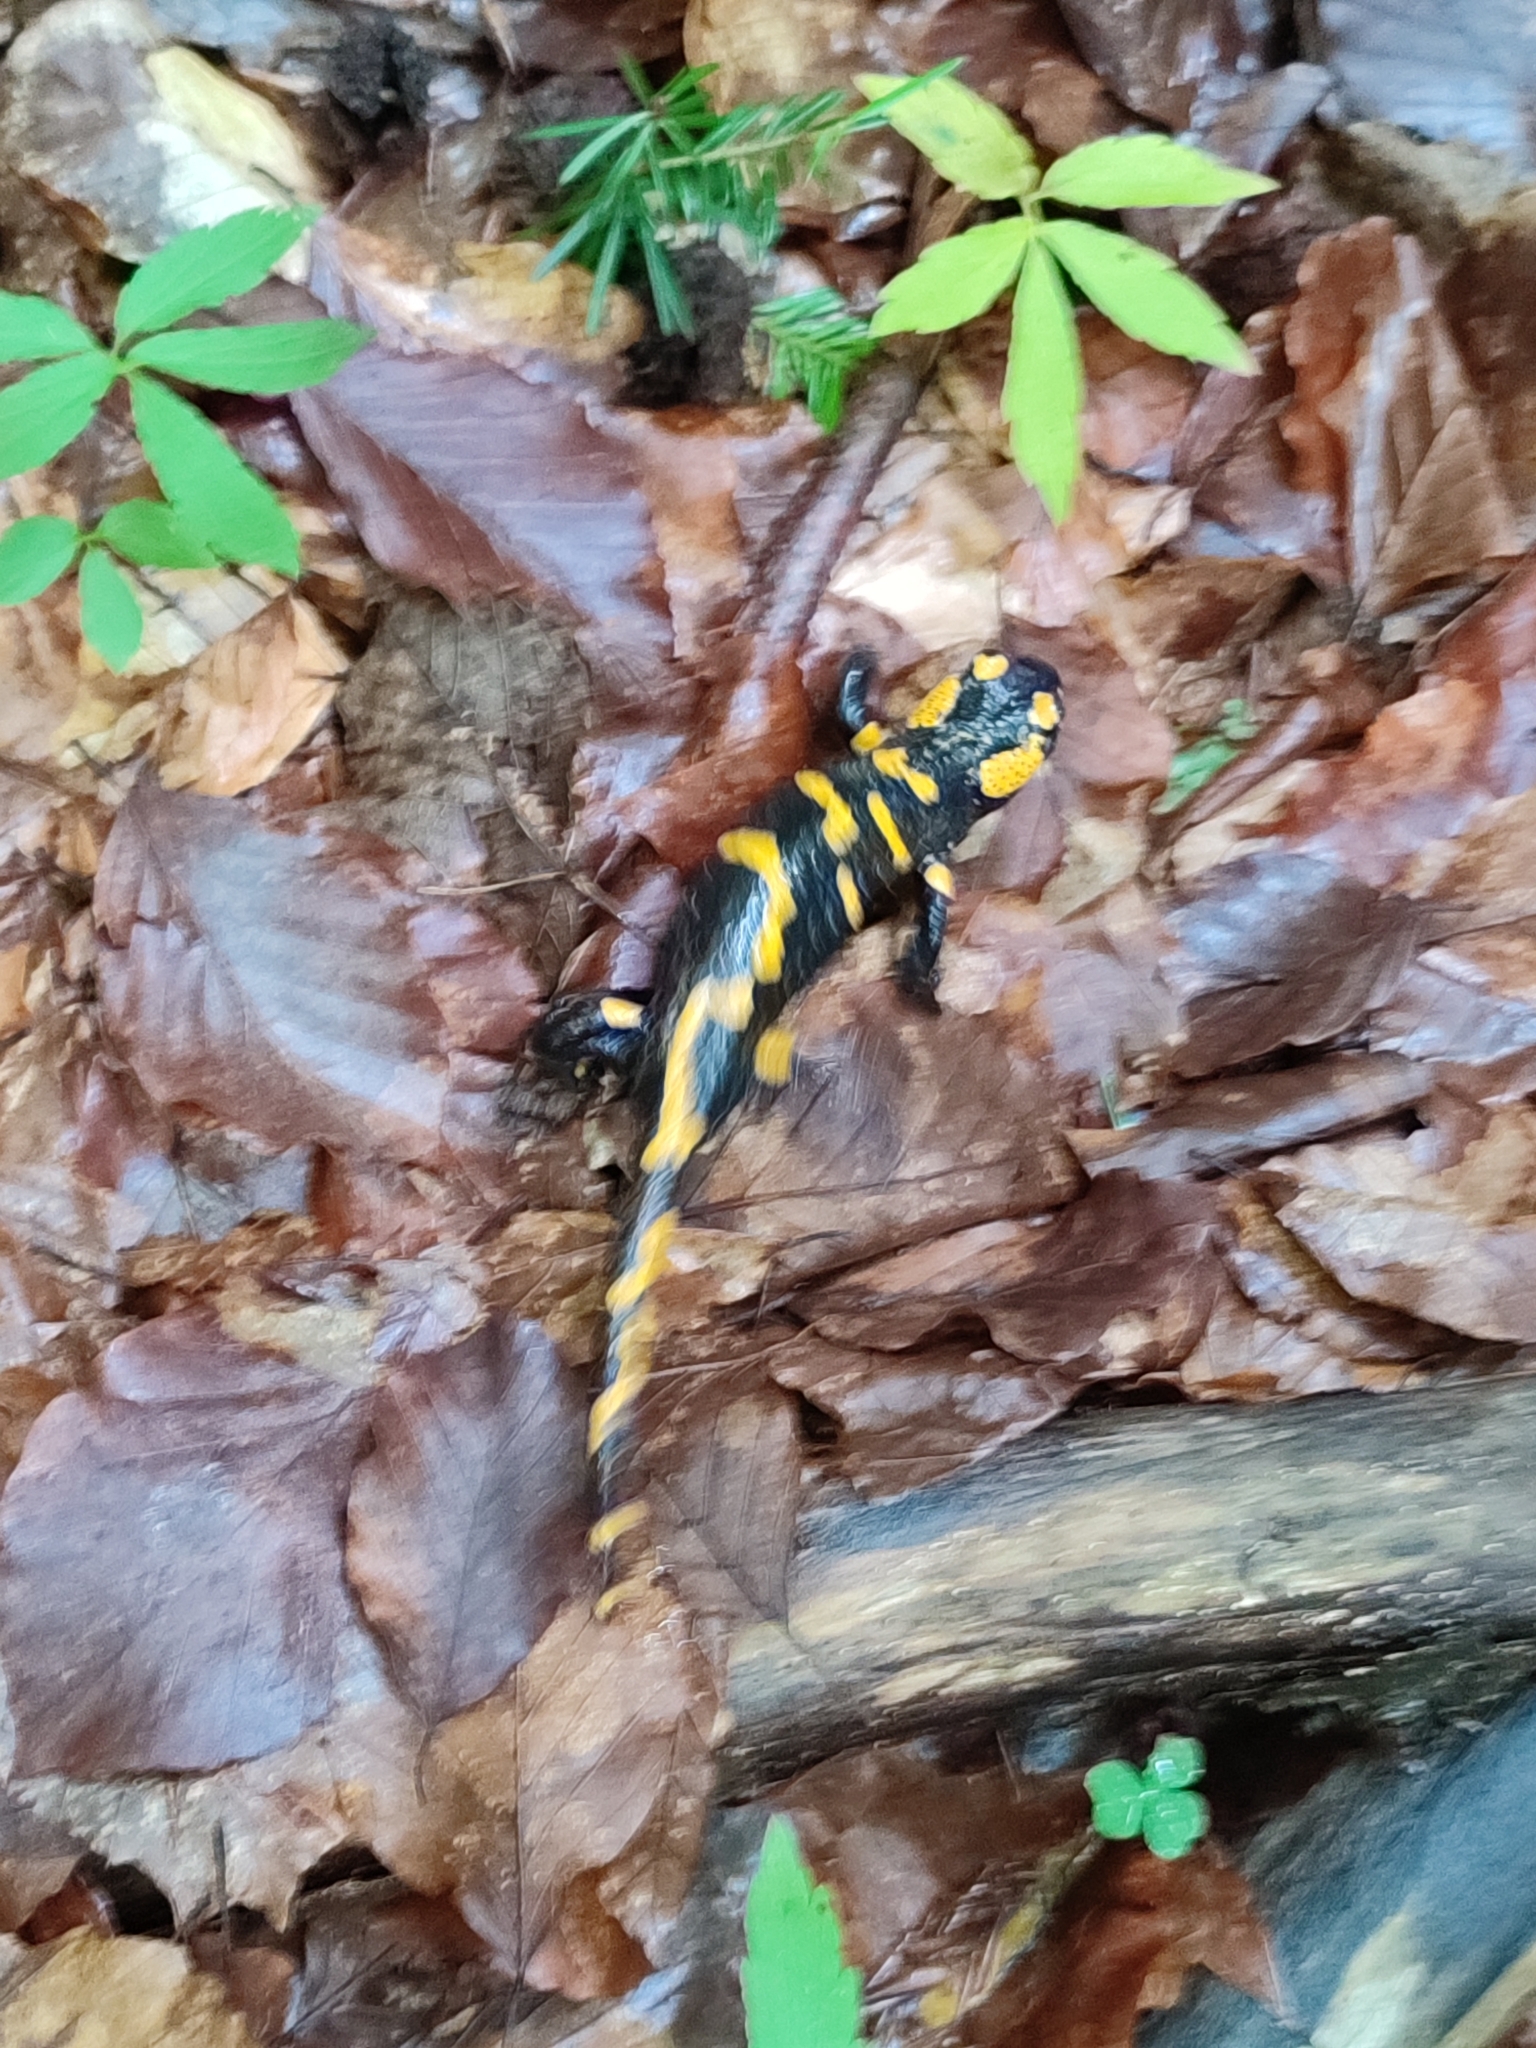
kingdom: Animalia
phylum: Chordata
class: Amphibia
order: Caudata
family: Salamandridae
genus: Salamandra
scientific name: Salamandra salamandra
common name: Fire salamander
